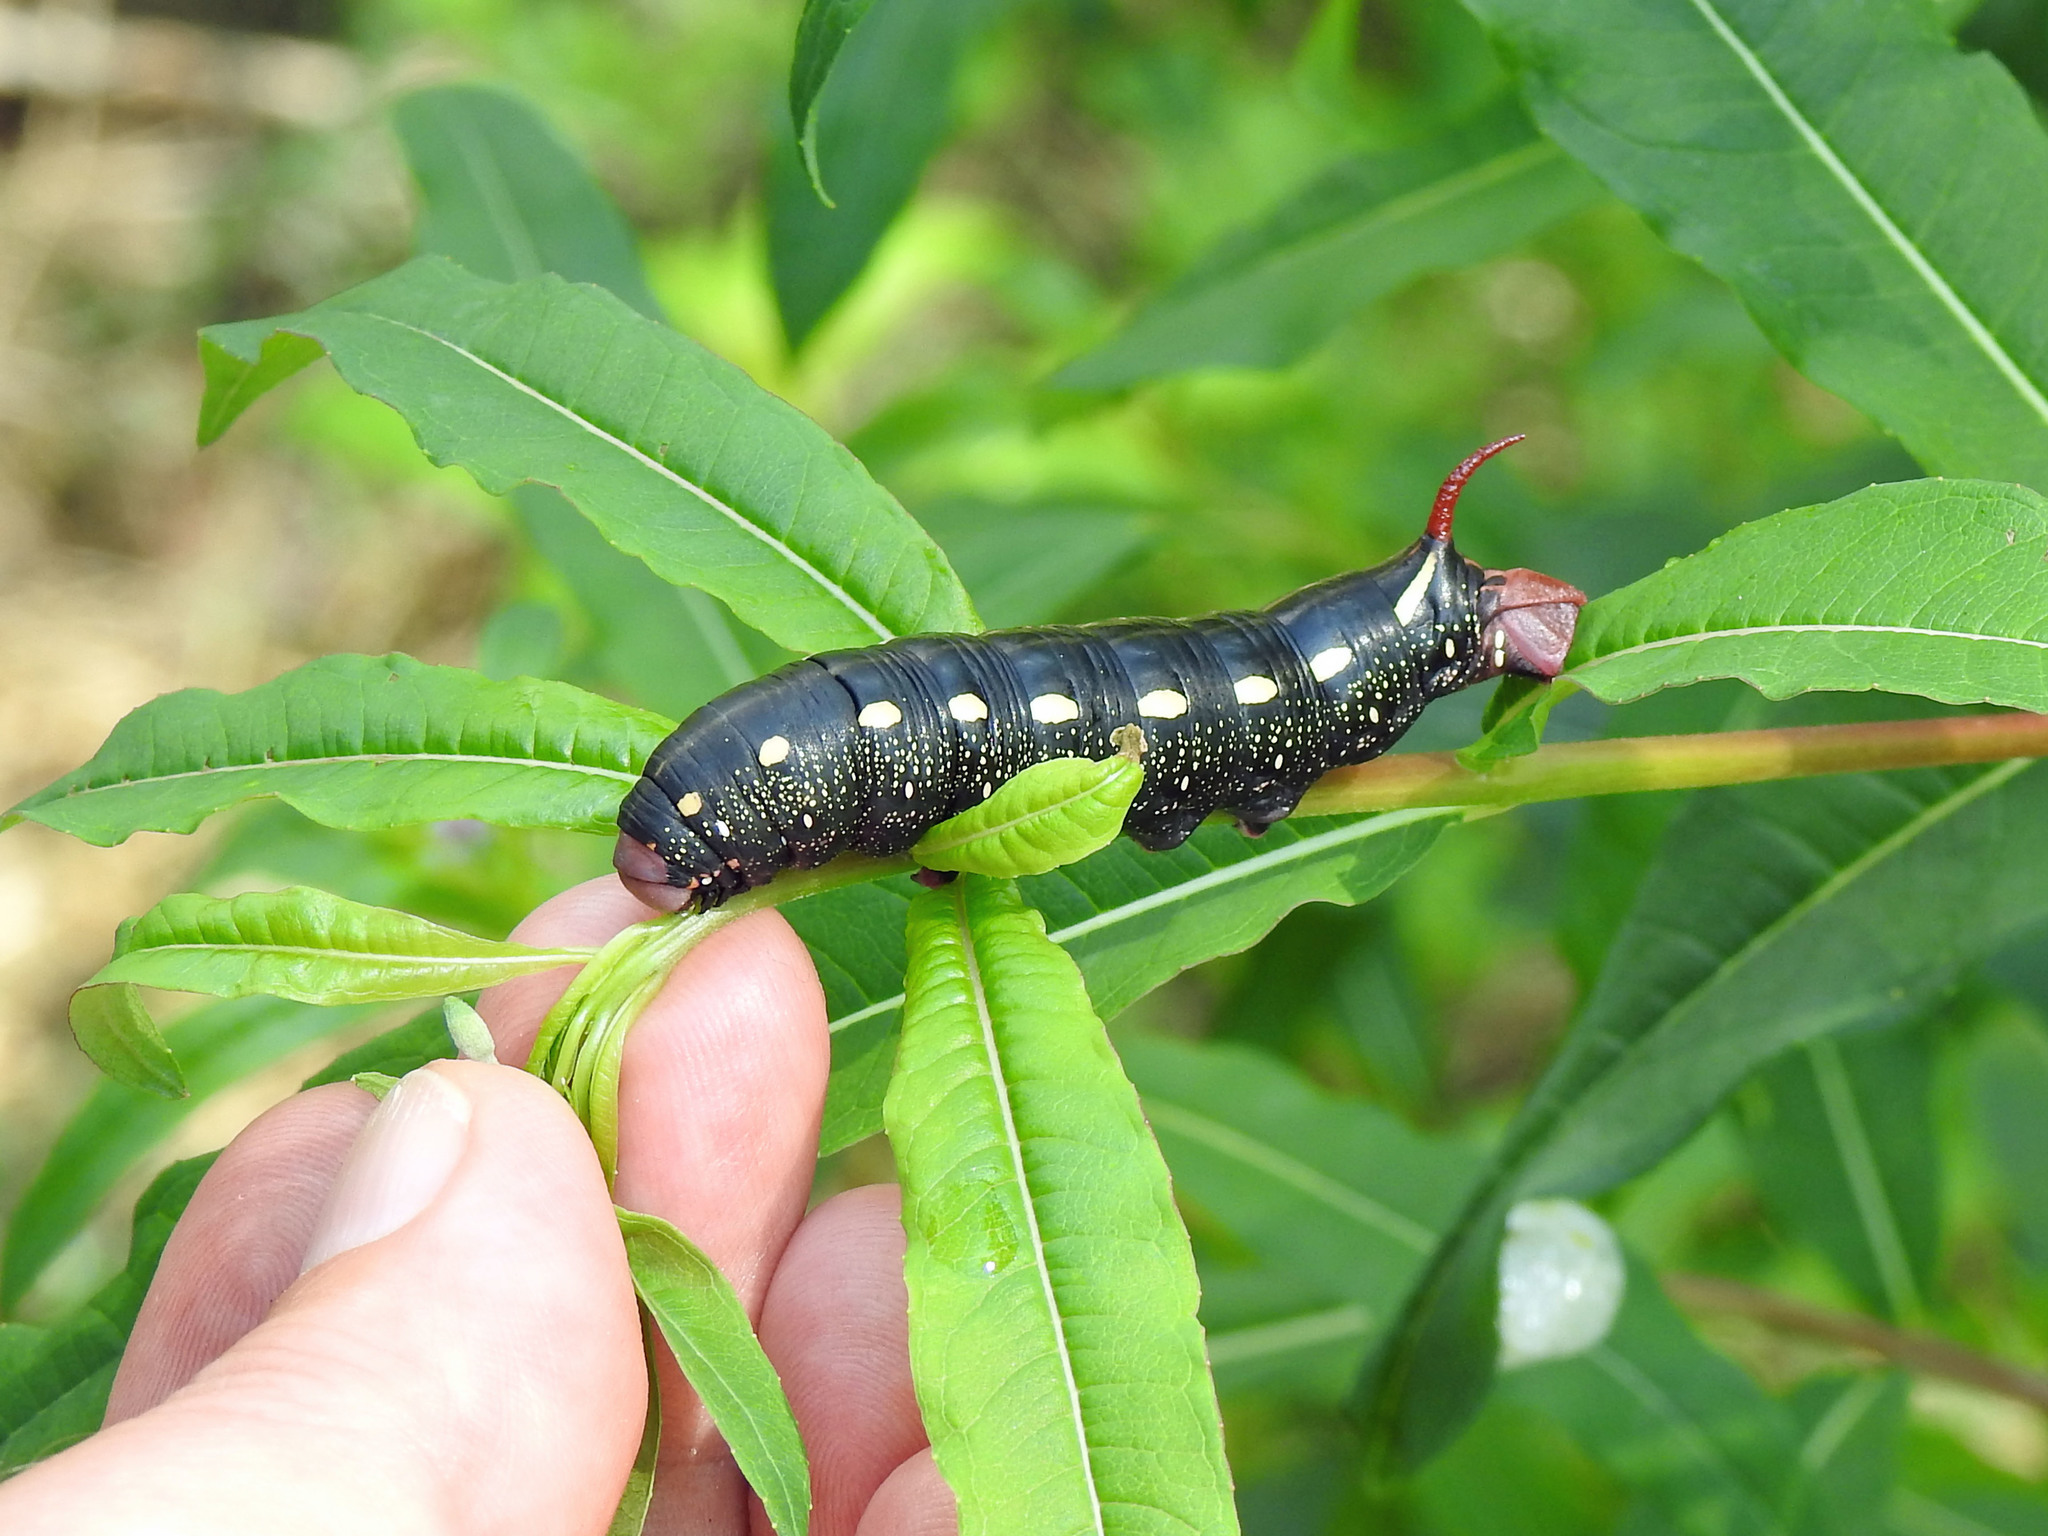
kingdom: Animalia
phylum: Arthropoda
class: Insecta
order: Lepidoptera
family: Sphingidae
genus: Hyles
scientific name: Hyles gallii
